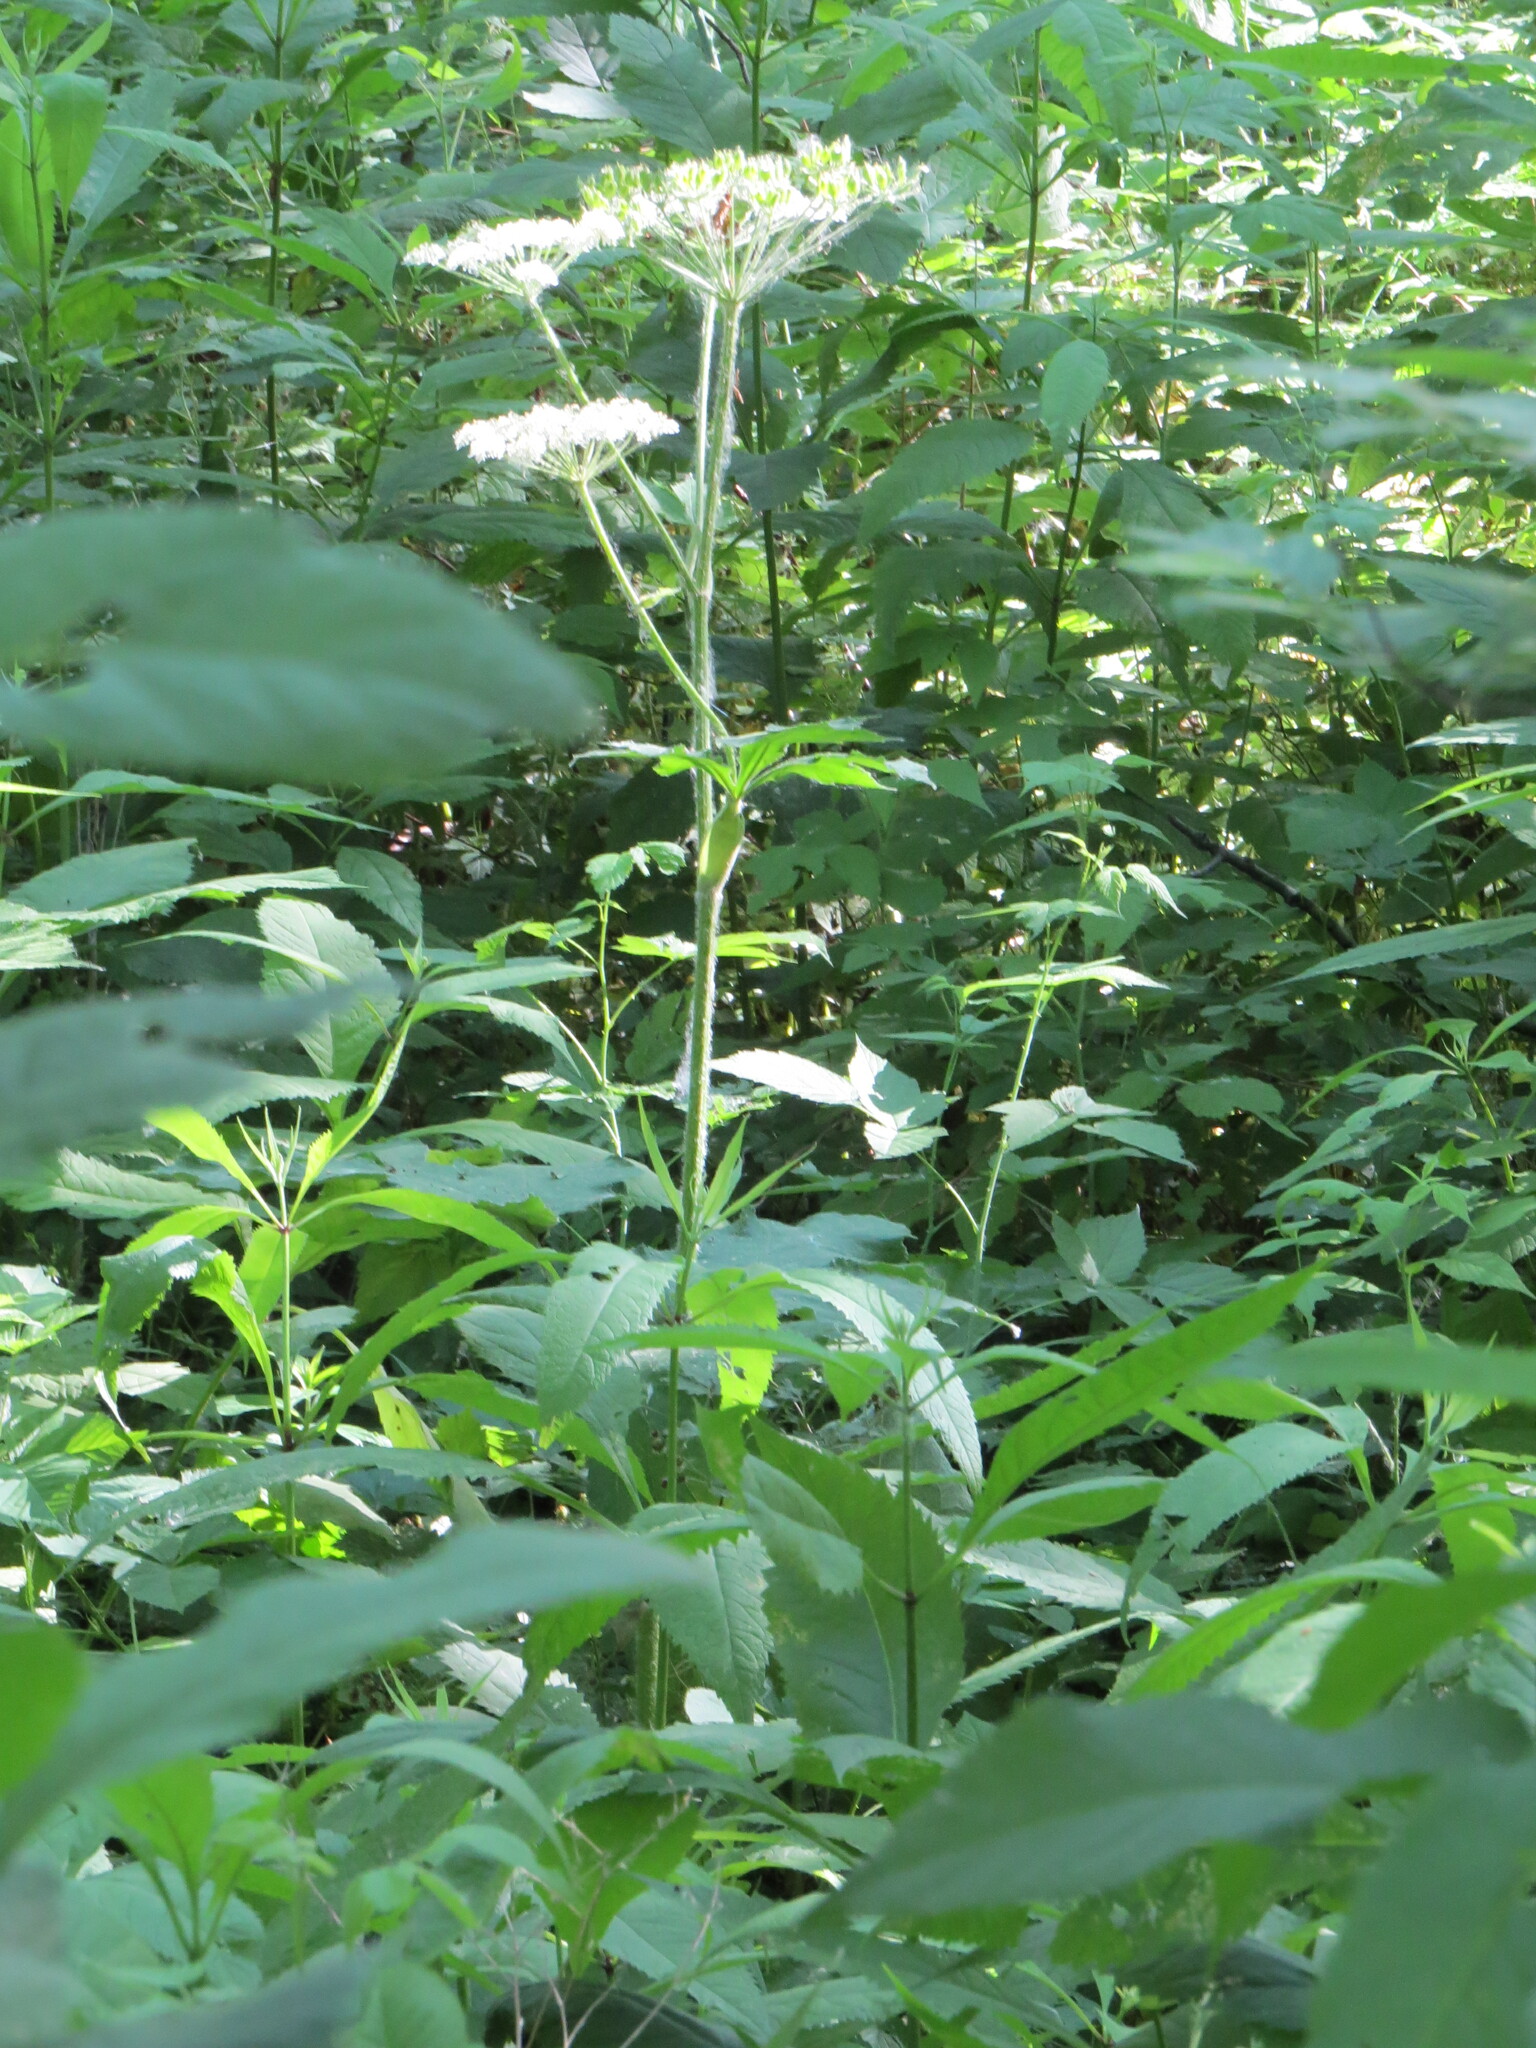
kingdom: Plantae
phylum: Tracheophyta
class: Magnoliopsida
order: Apiales
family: Apiaceae
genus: Heracleum
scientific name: Heracleum maximum
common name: American cow parsnip
